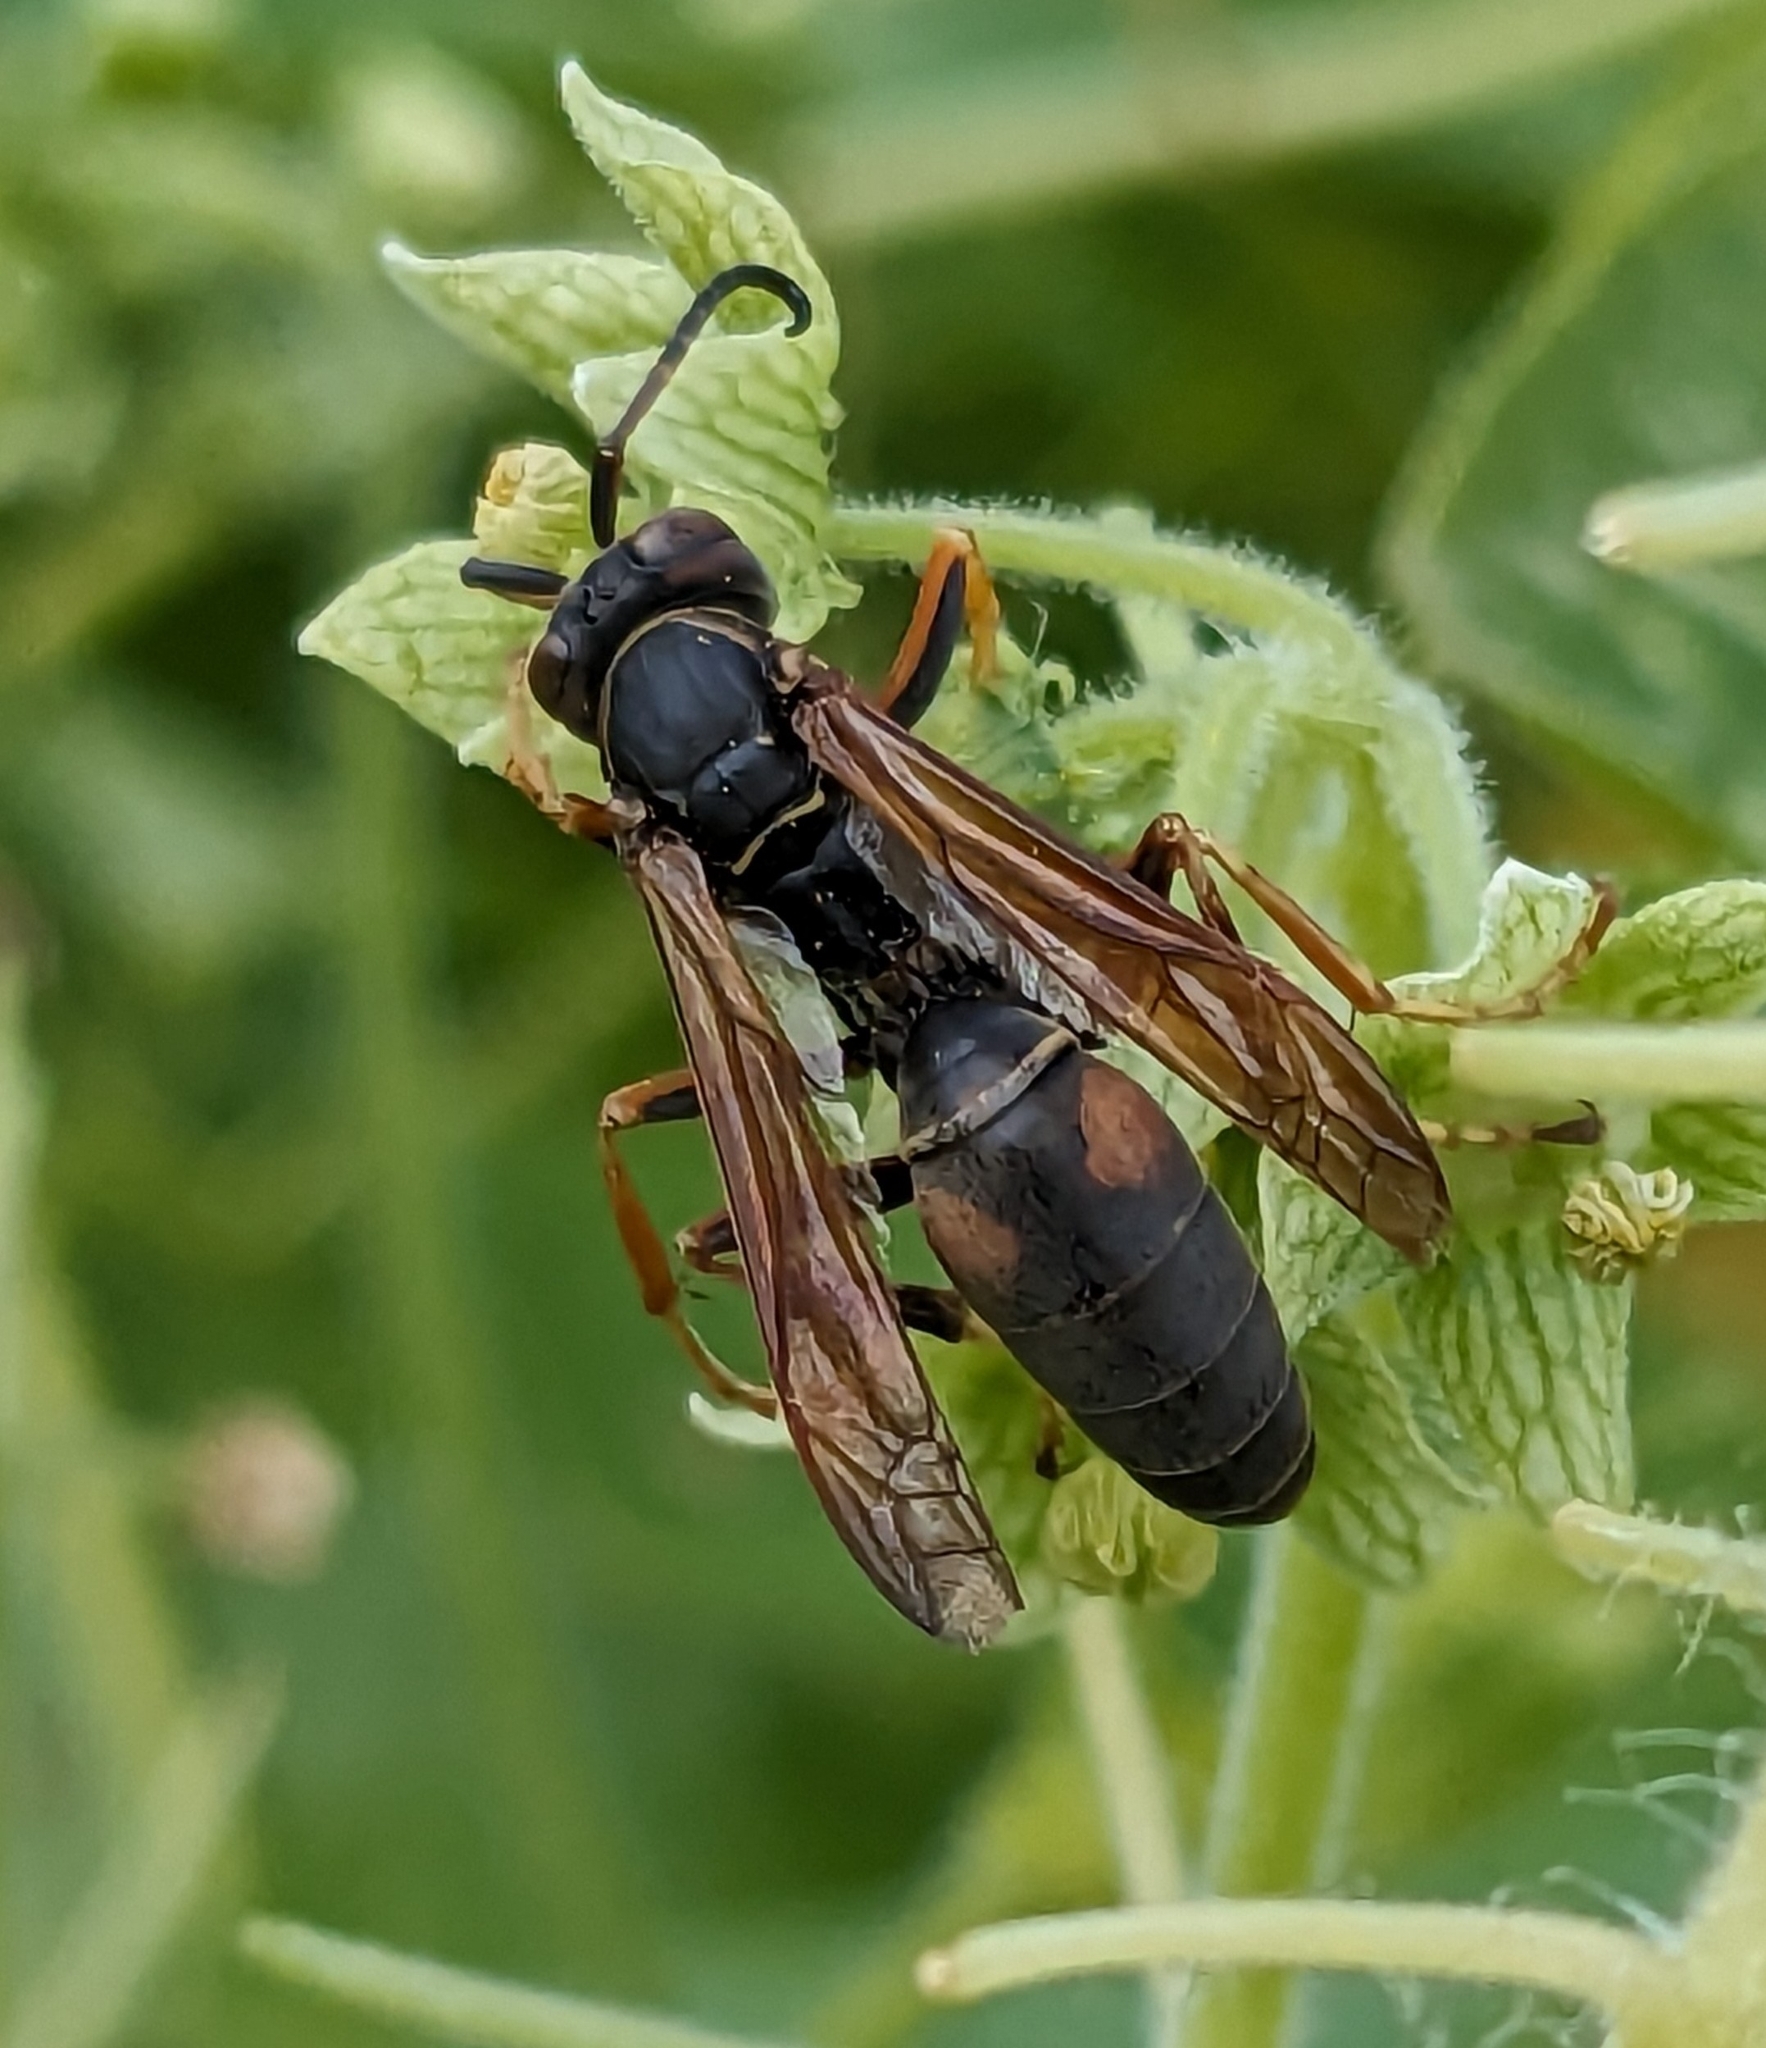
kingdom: Animalia
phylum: Arthropoda
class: Insecta
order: Hymenoptera
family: Eumenidae
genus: Polistes
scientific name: Polistes fuscatus
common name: Dark paper wasp
